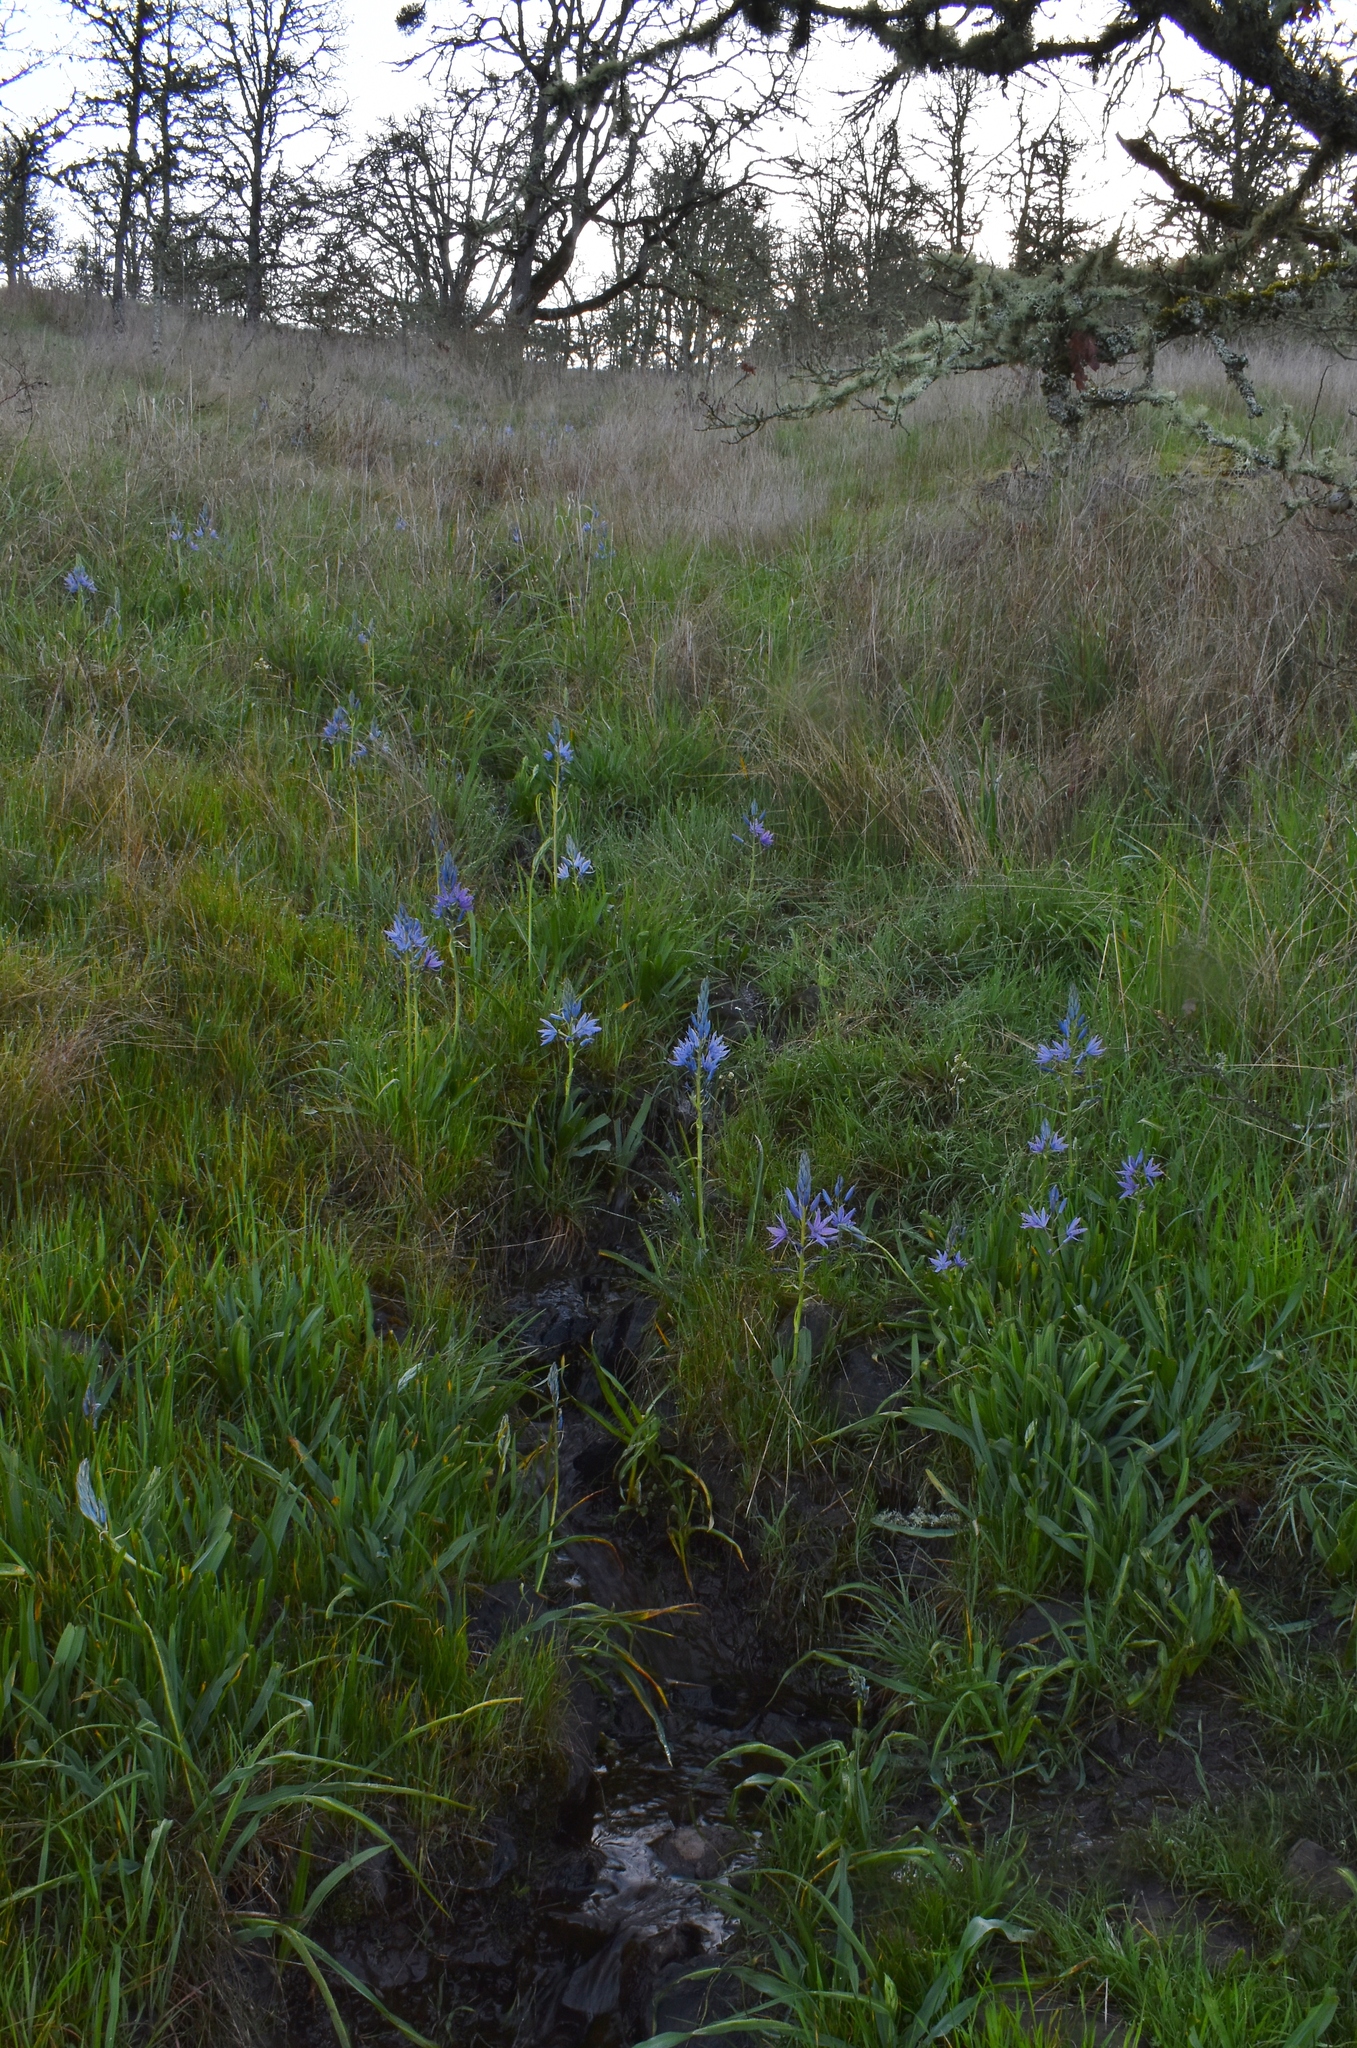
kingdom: Plantae
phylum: Tracheophyta
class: Liliopsida
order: Asparagales
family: Asparagaceae
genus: Camassia
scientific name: Camassia leichtlinii
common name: Leichtlin's camas
